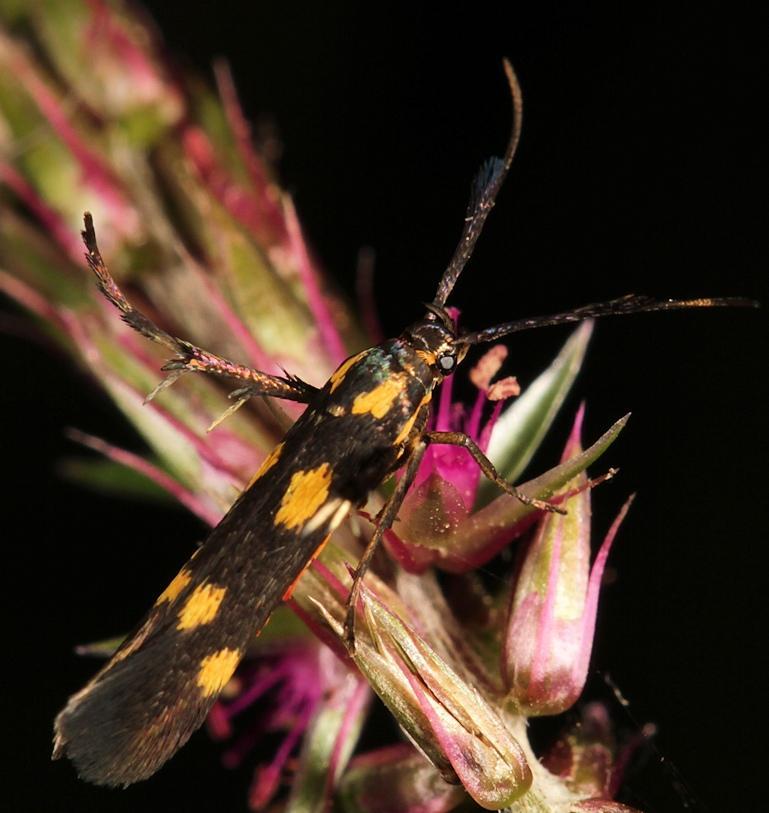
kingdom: Animalia
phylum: Arthropoda
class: Insecta
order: Lepidoptera
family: Scythrididae
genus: Eretmocera
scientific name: Eretmocera syleuta
